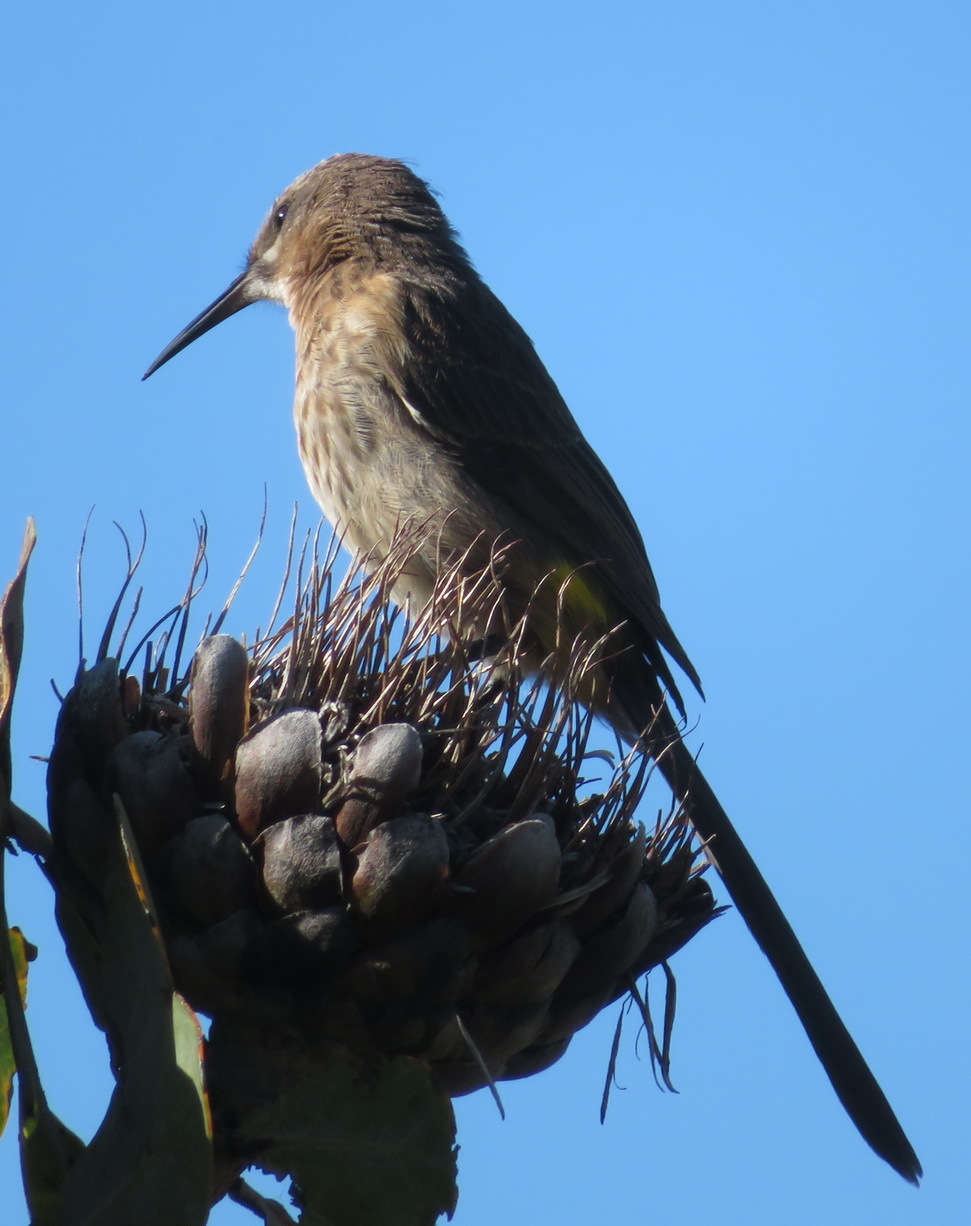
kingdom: Animalia
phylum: Chordata
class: Aves
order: Passeriformes
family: Promeropidae
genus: Promerops
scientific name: Promerops cafer
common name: Cape sugarbird
